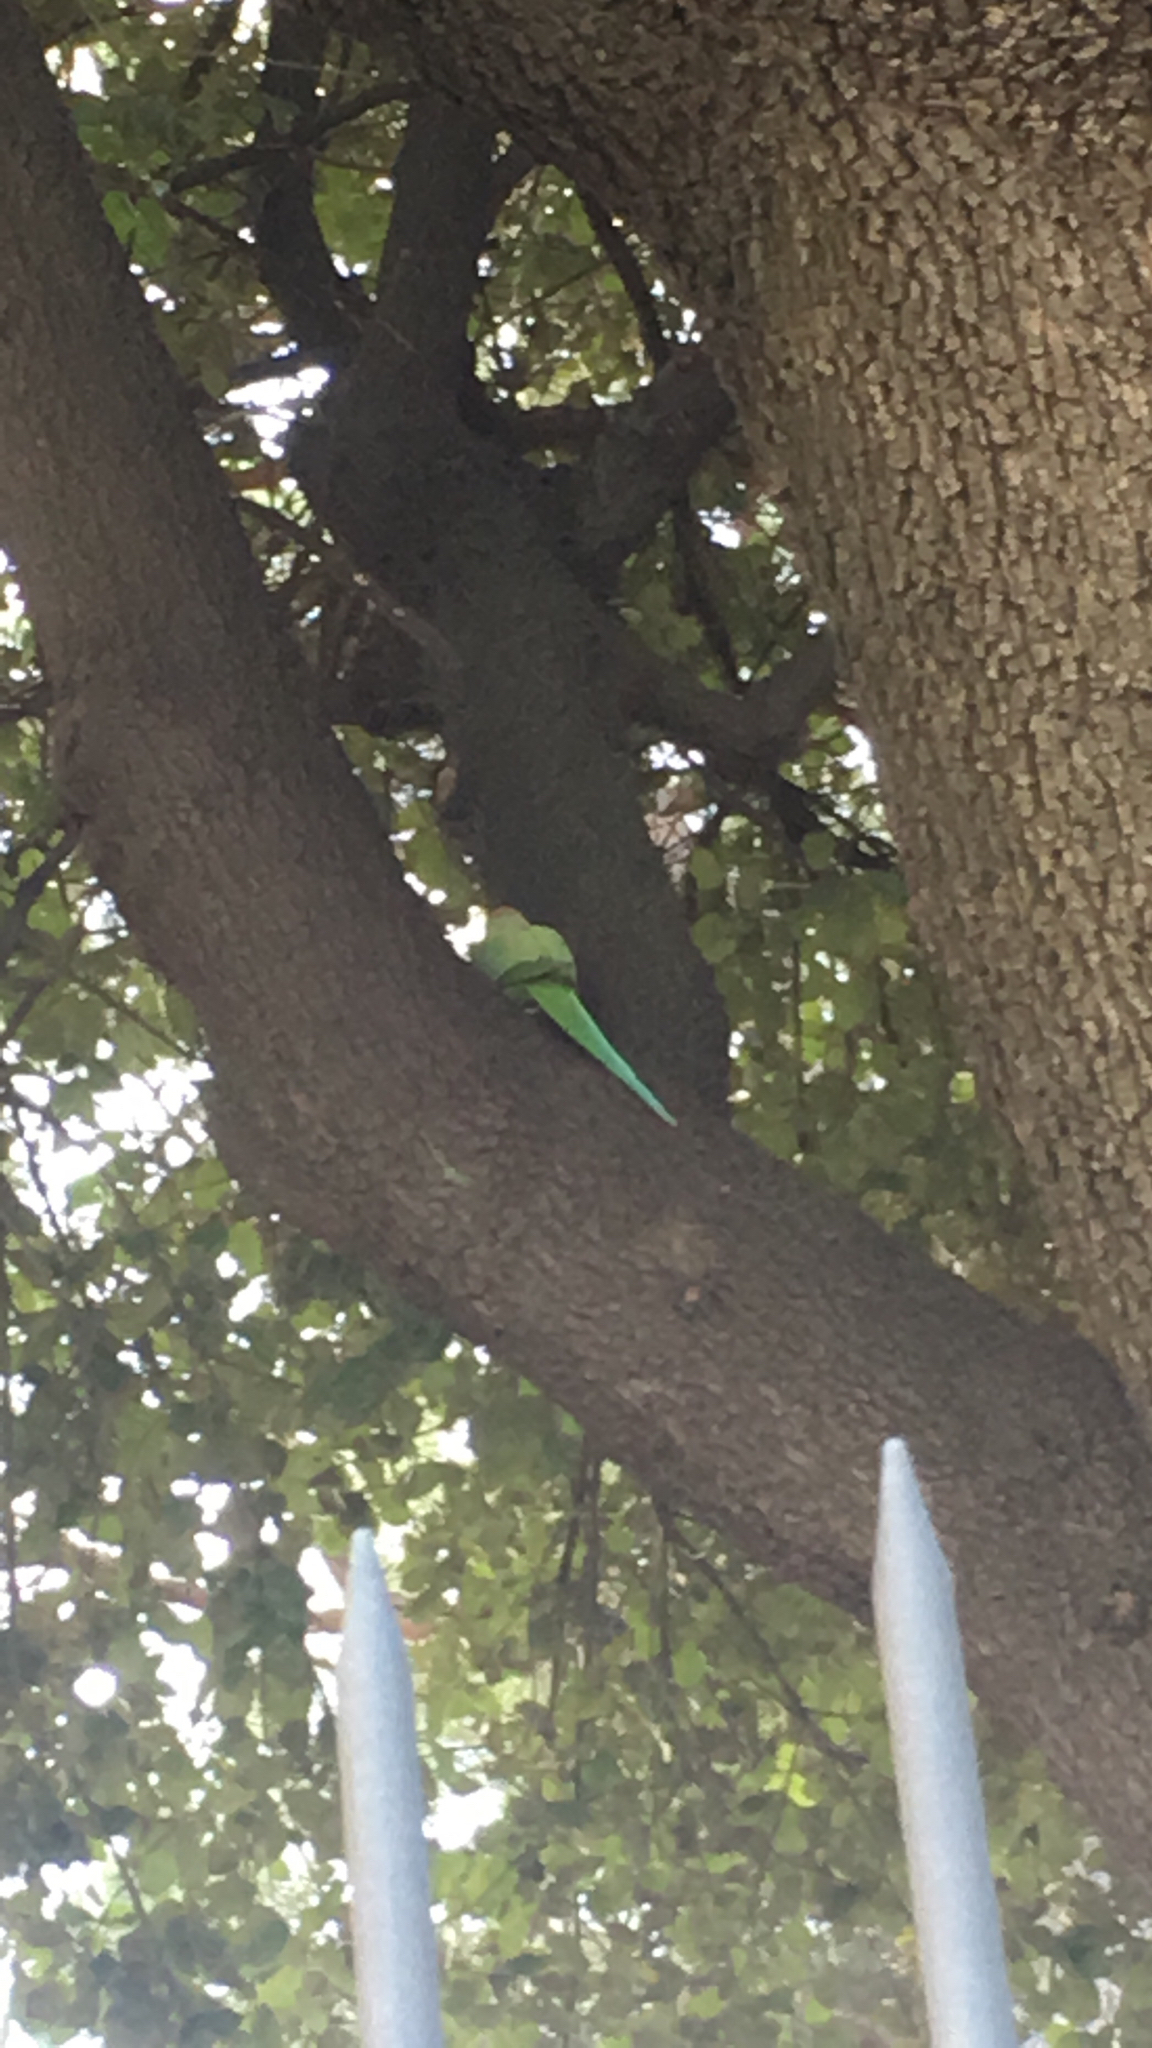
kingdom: Animalia
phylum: Chordata
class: Aves
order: Psittaciformes
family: Psittacidae
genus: Psittacula
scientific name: Psittacula krameri
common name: Rose-ringed parakeet
